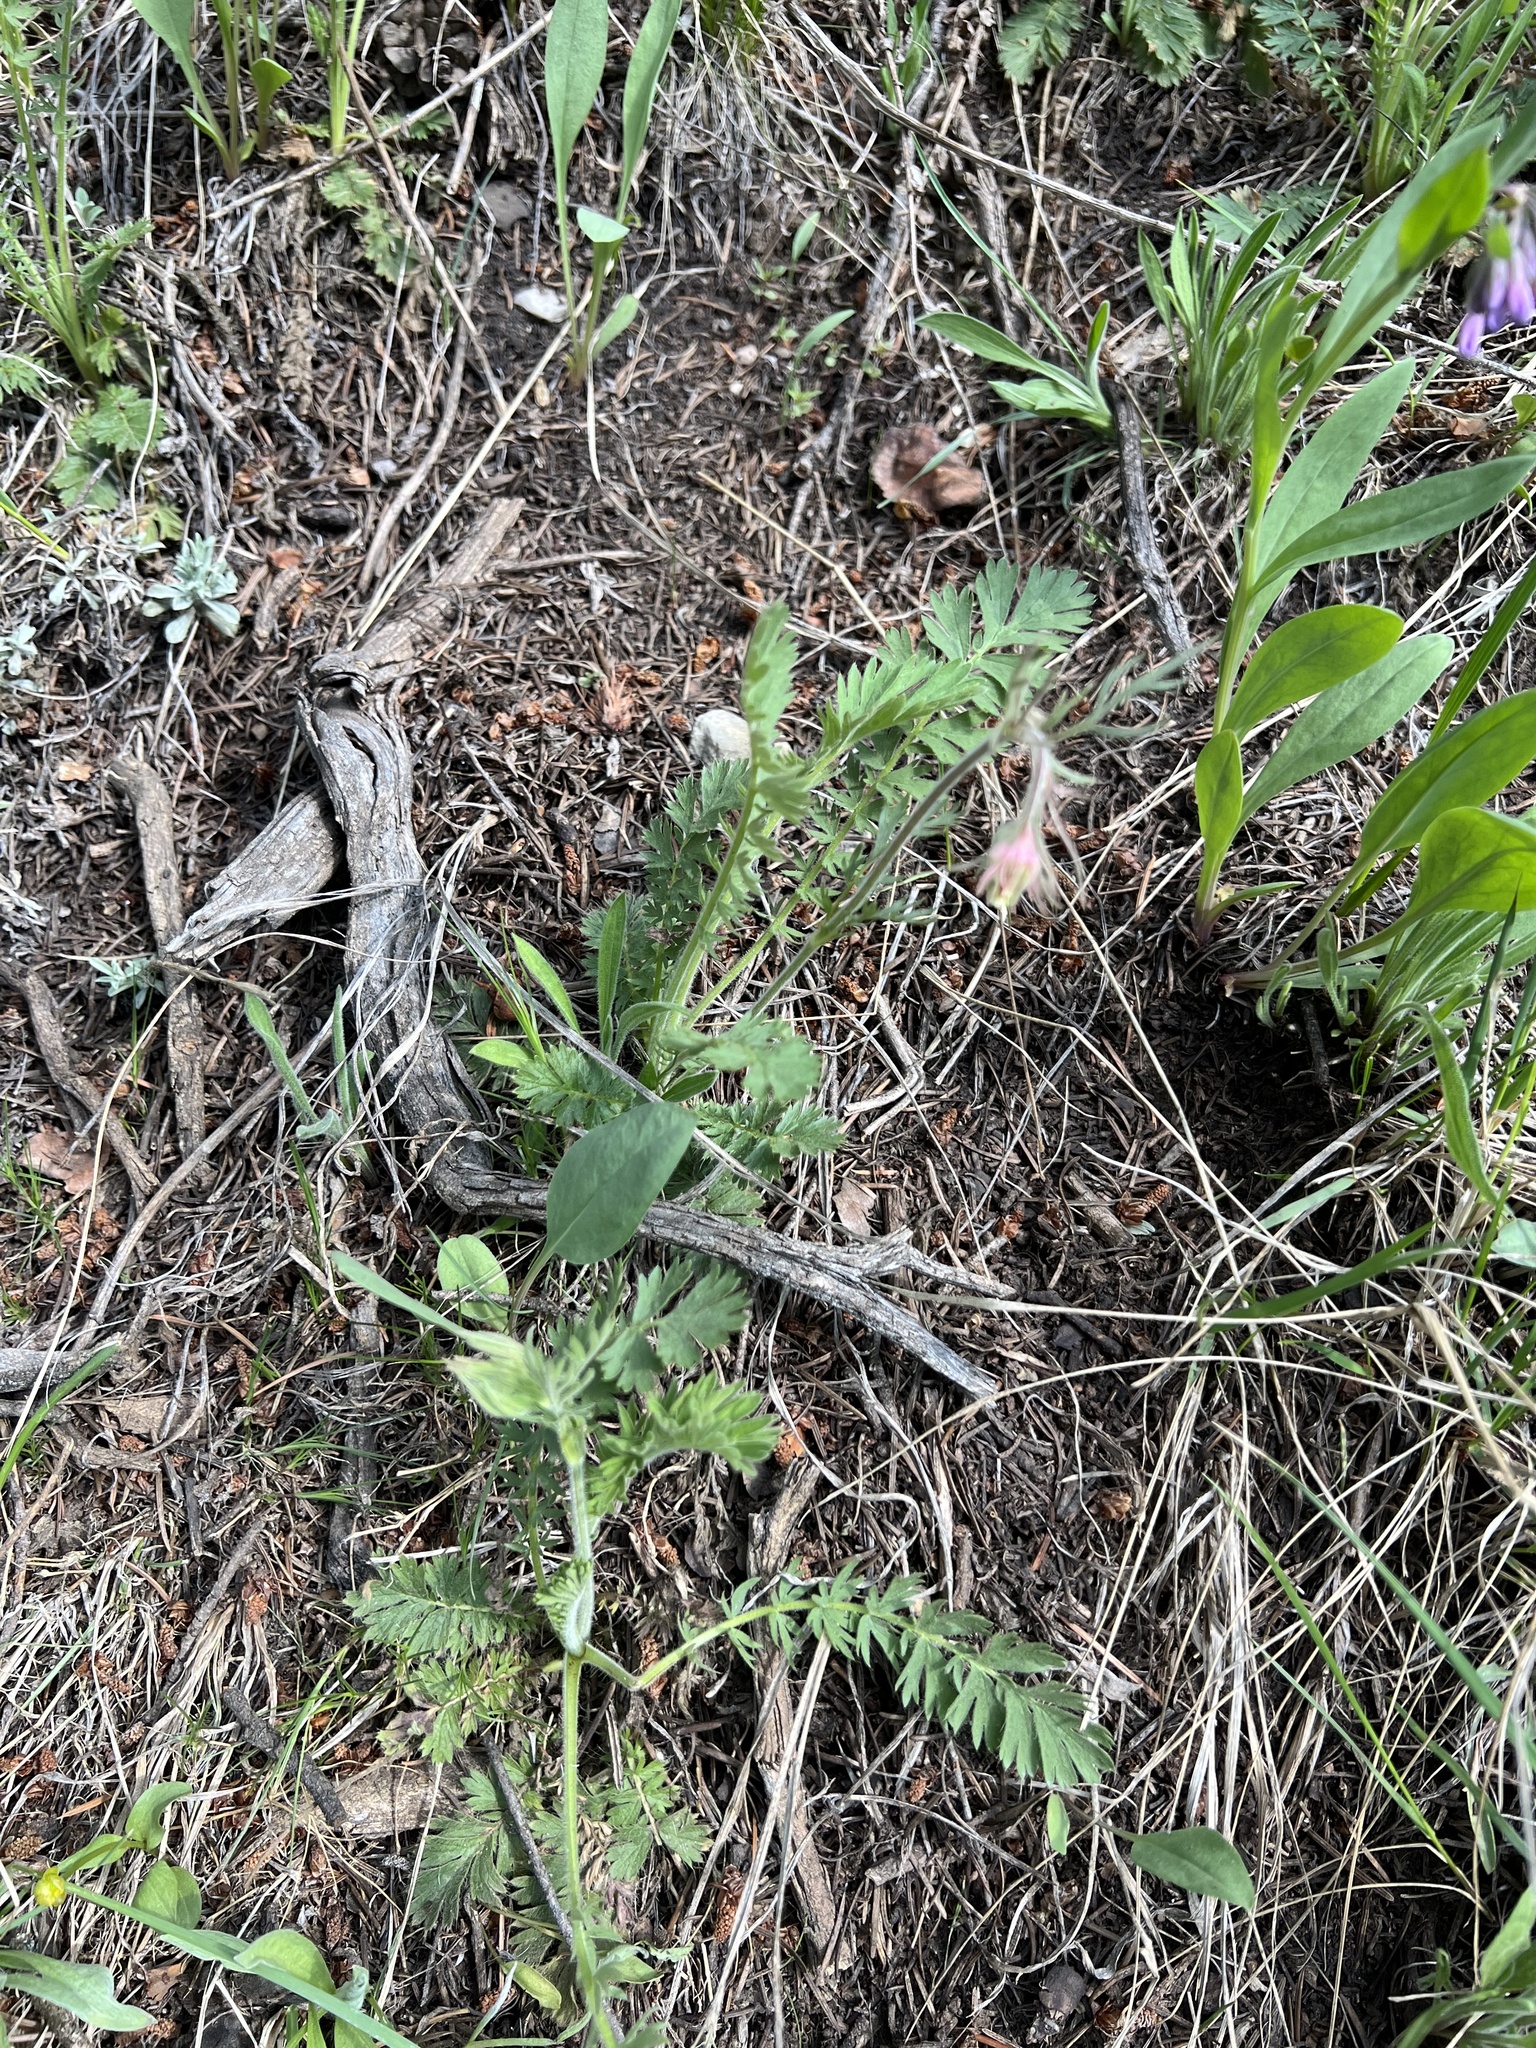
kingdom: Plantae
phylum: Tracheophyta
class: Magnoliopsida
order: Rosales
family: Rosaceae
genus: Geum
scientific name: Geum triflorum
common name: Old man's whiskers
